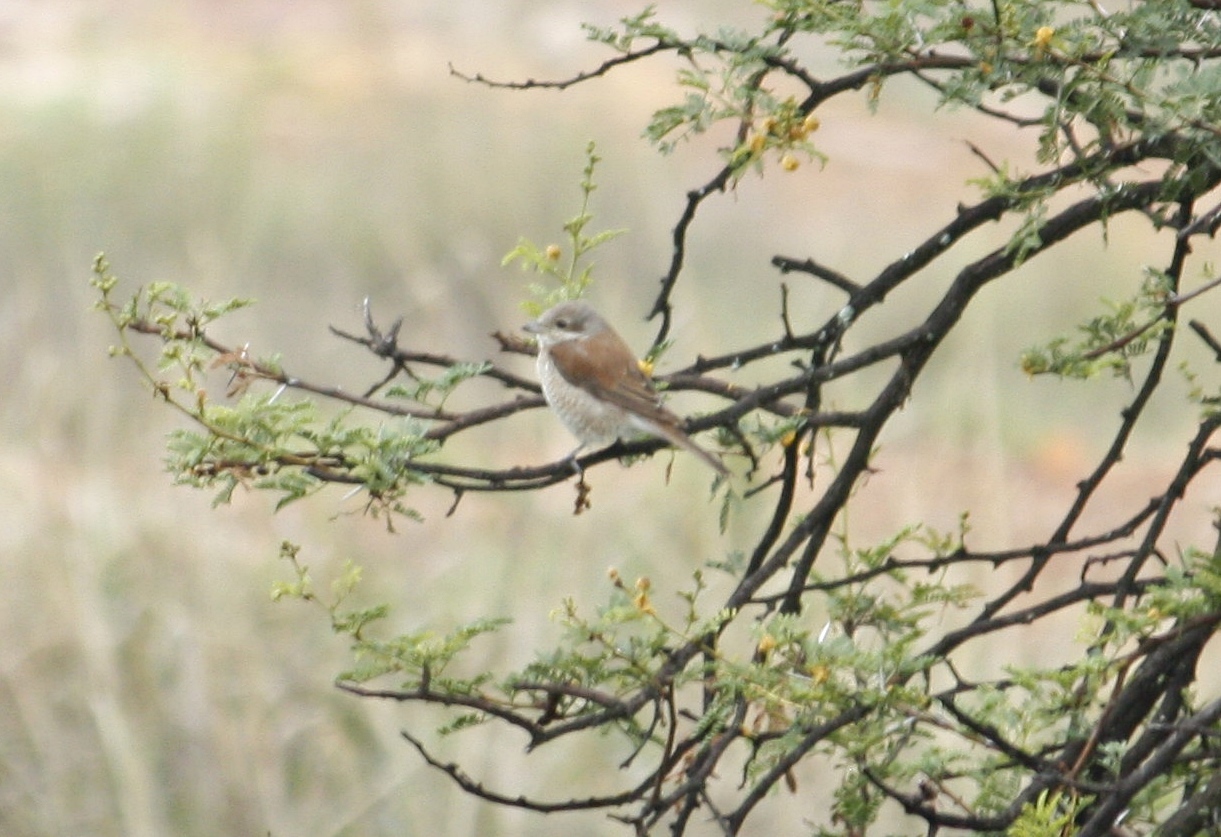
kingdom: Animalia
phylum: Chordata
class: Aves
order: Passeriformes
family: Laniidae
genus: Lanius
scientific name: Lanius collurio
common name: Red-backed shrike
